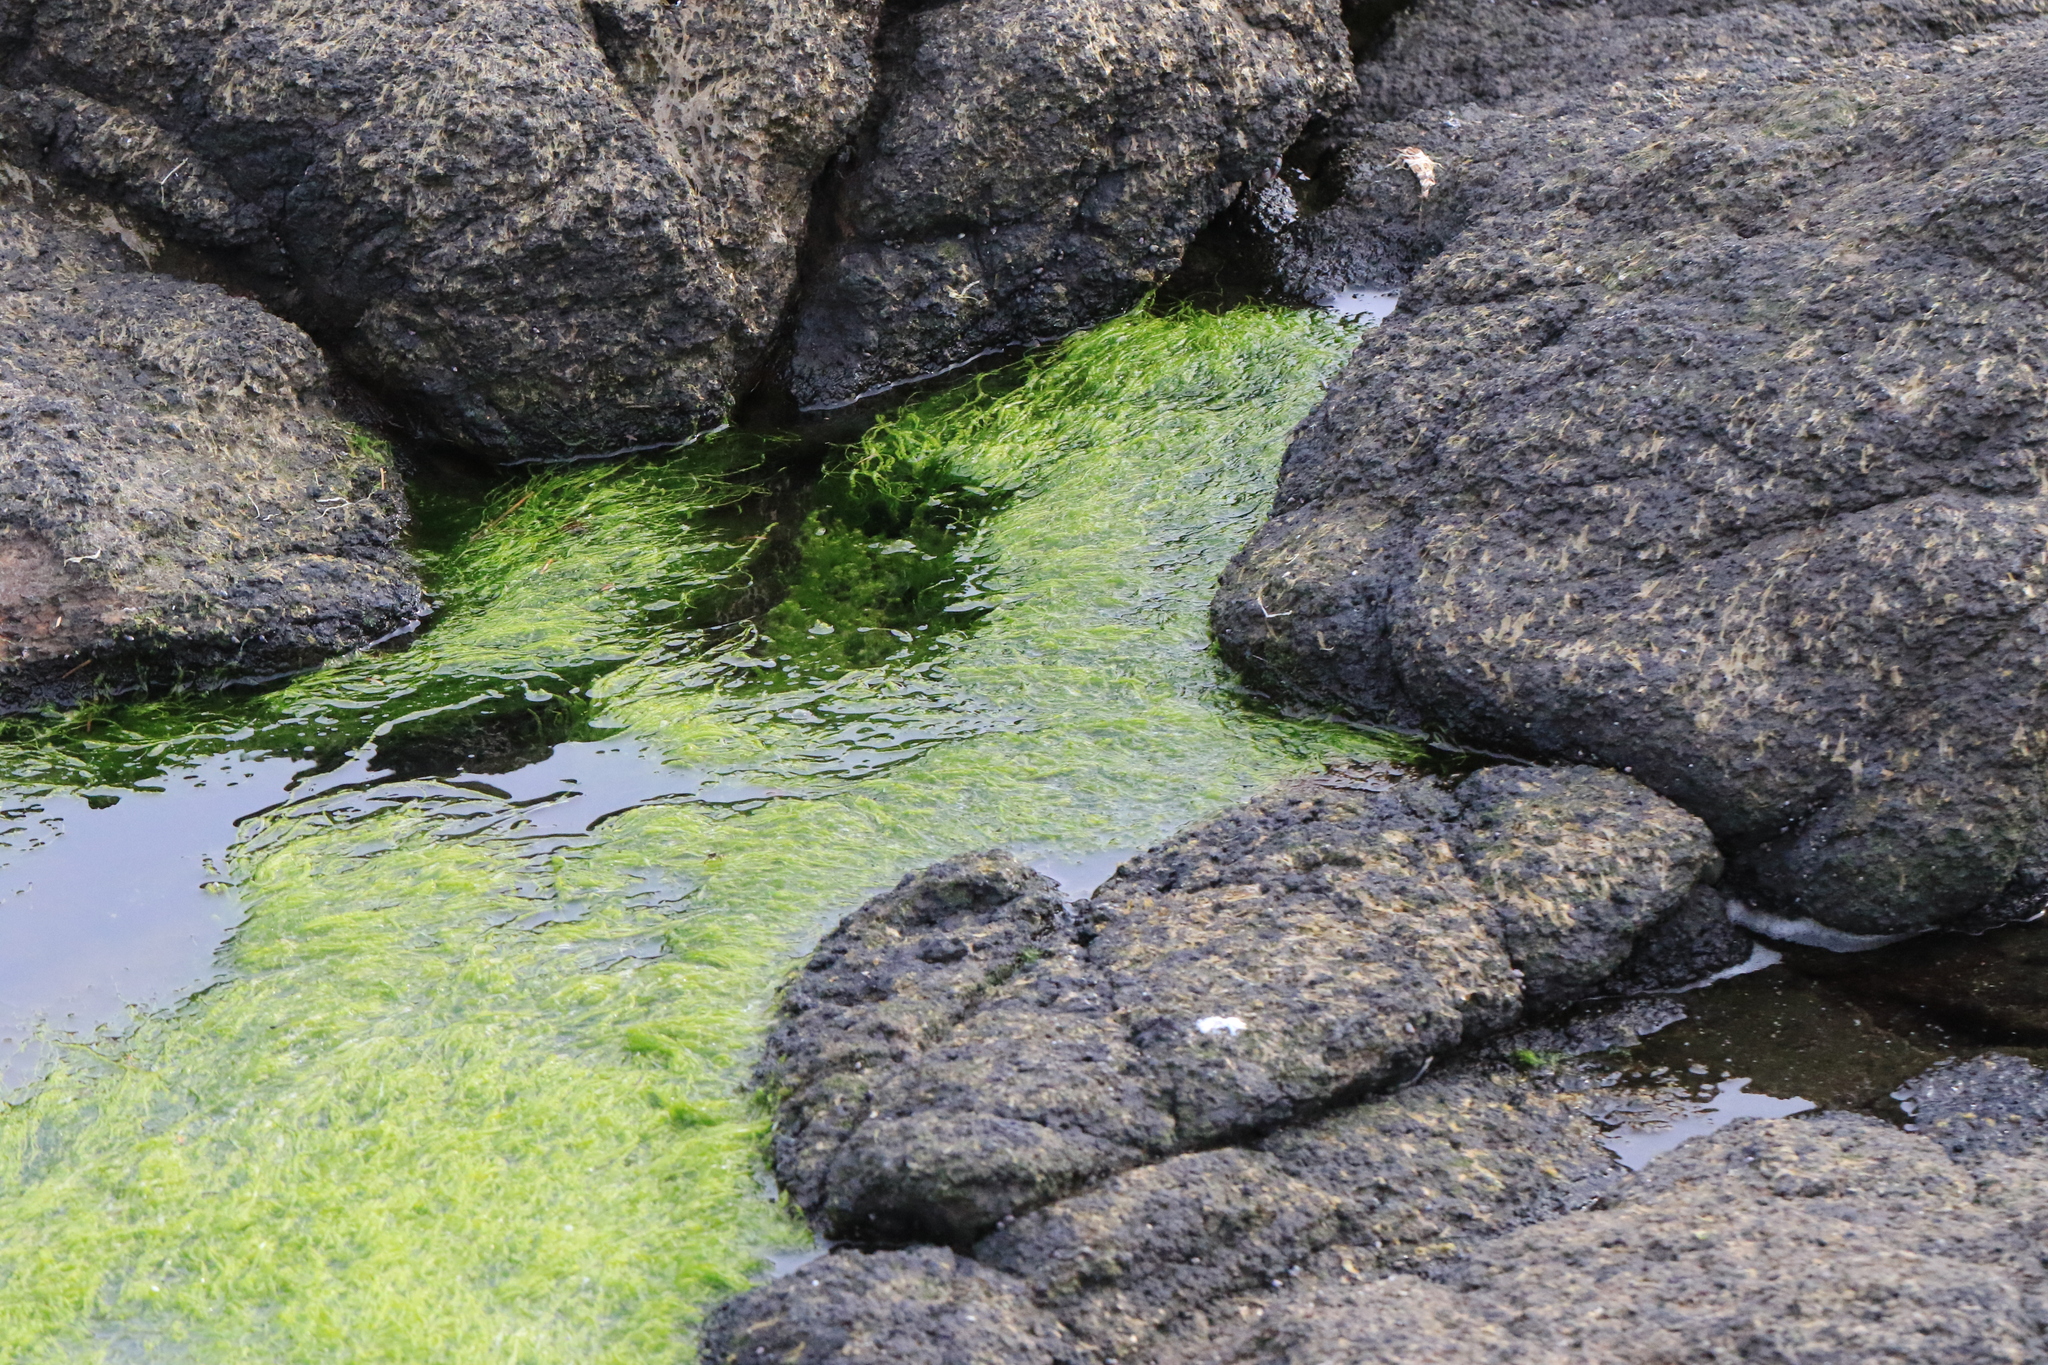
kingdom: Plantae
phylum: Chlorophyta
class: Ulvophyceae
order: Ulvales
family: Ulvaceae
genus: Ulva
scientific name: Ulva intestinalis
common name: Gut weed
